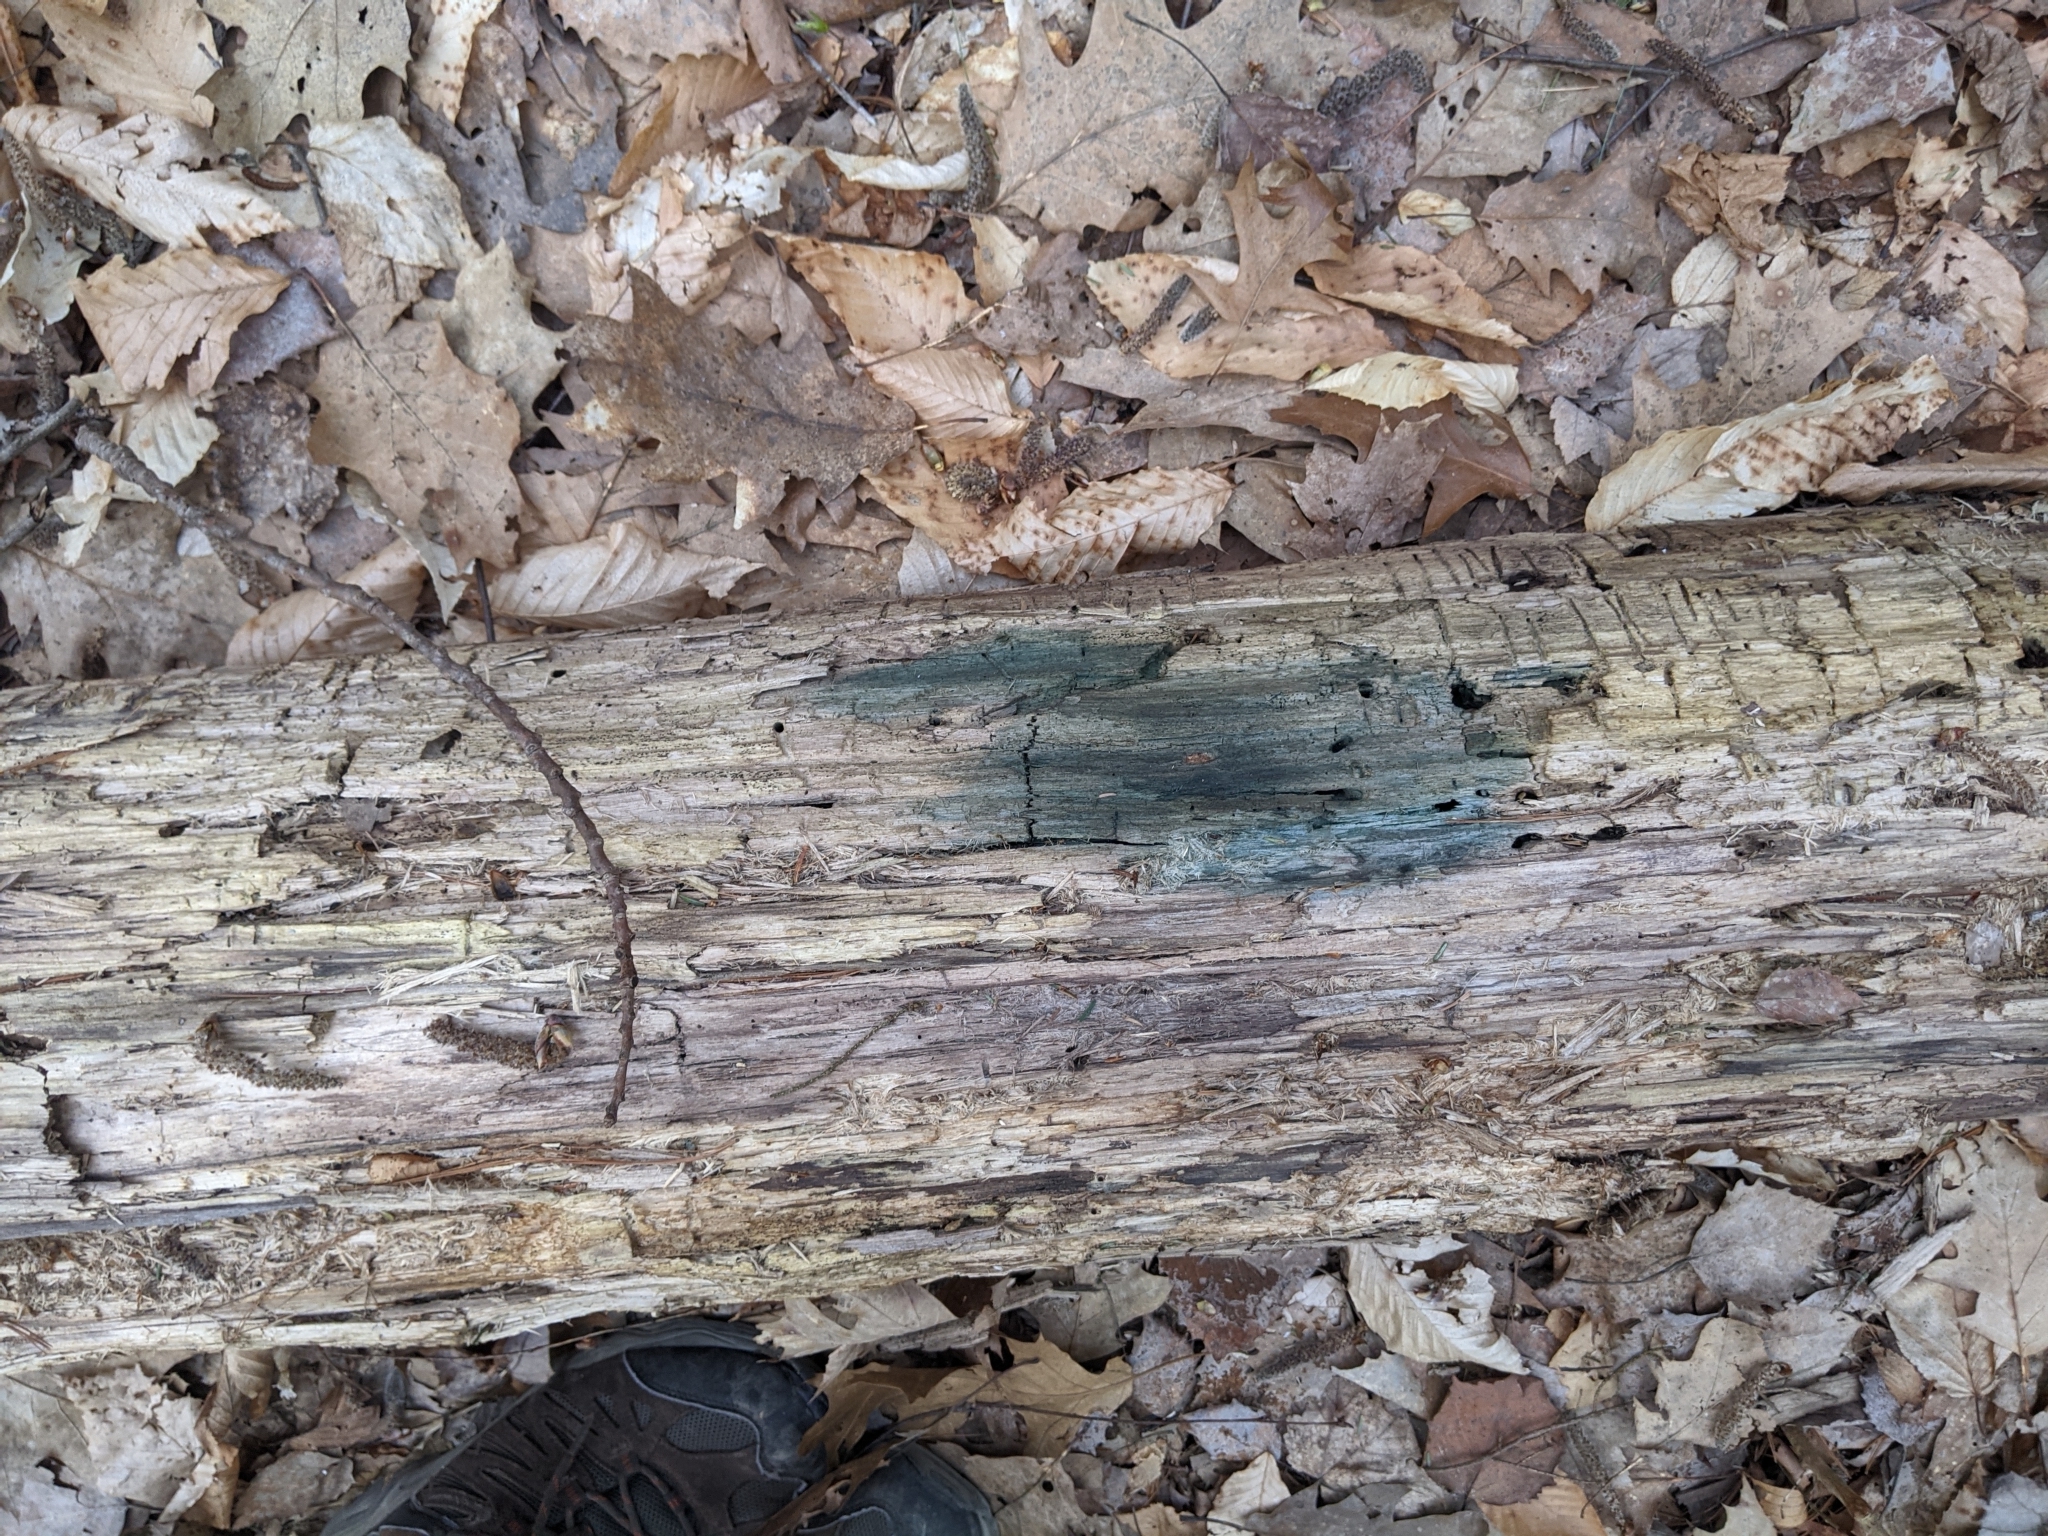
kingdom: Fungi
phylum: Ascomycota
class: Leotiomycetes
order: Helotiales
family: Chlorociboriaceae
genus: Chlorociboria
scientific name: Chlorociboria
